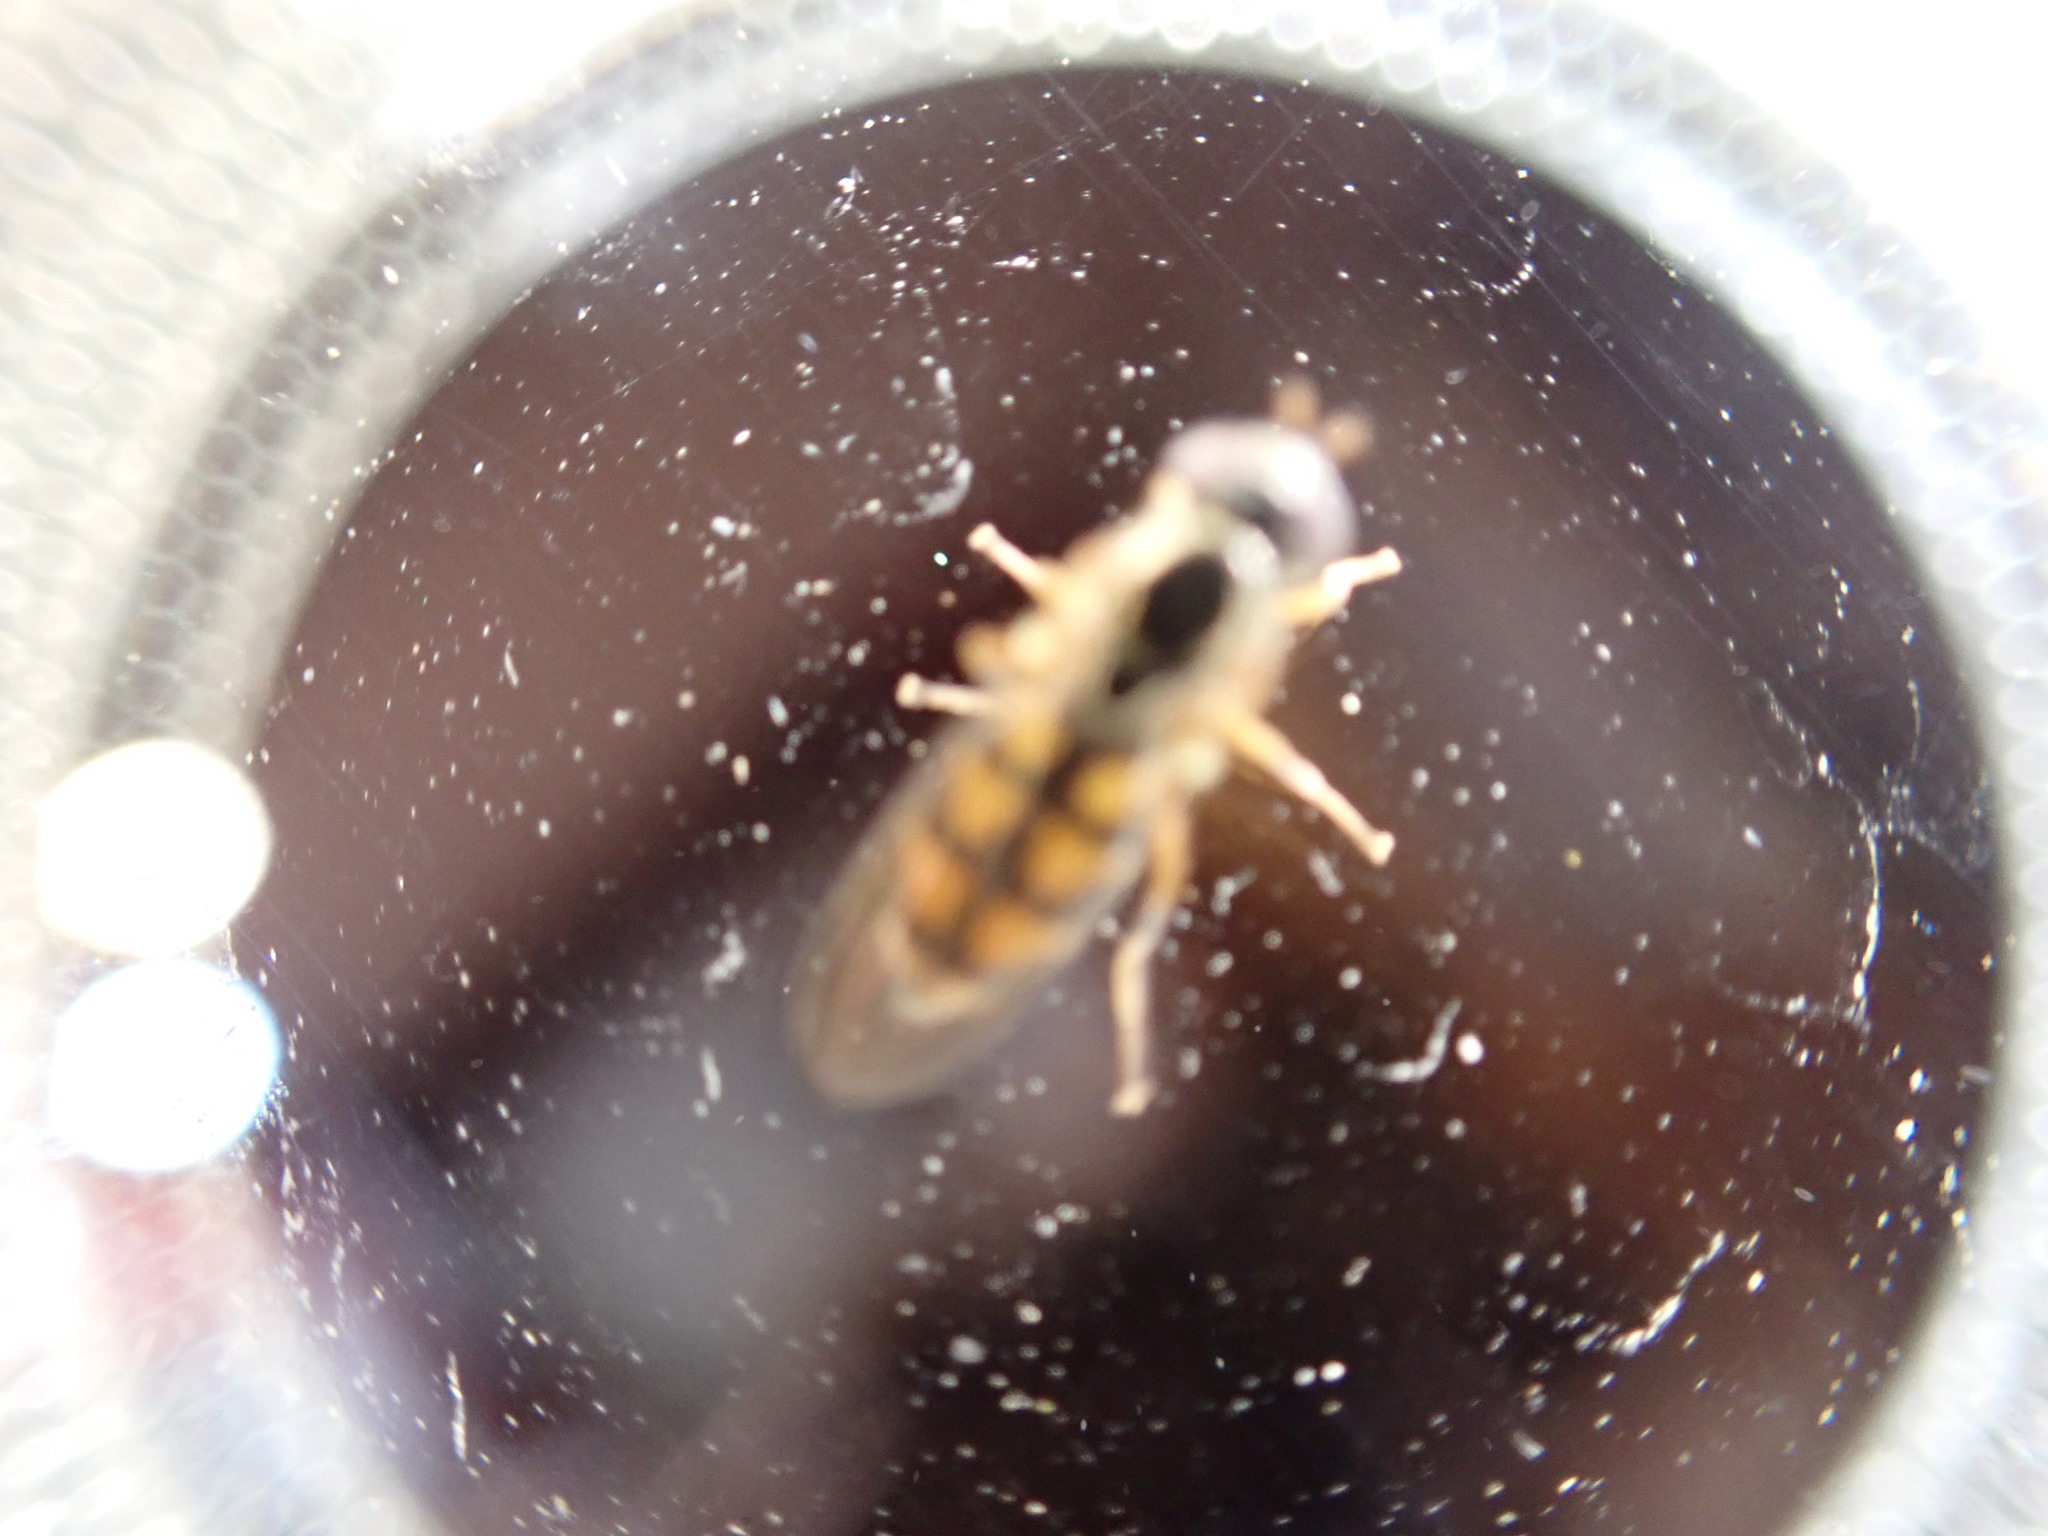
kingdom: Animalia
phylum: Arthropoda
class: Insecta
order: Diptera
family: Syrphidae
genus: Melanostoma
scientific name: Melanostoma fasciatum
